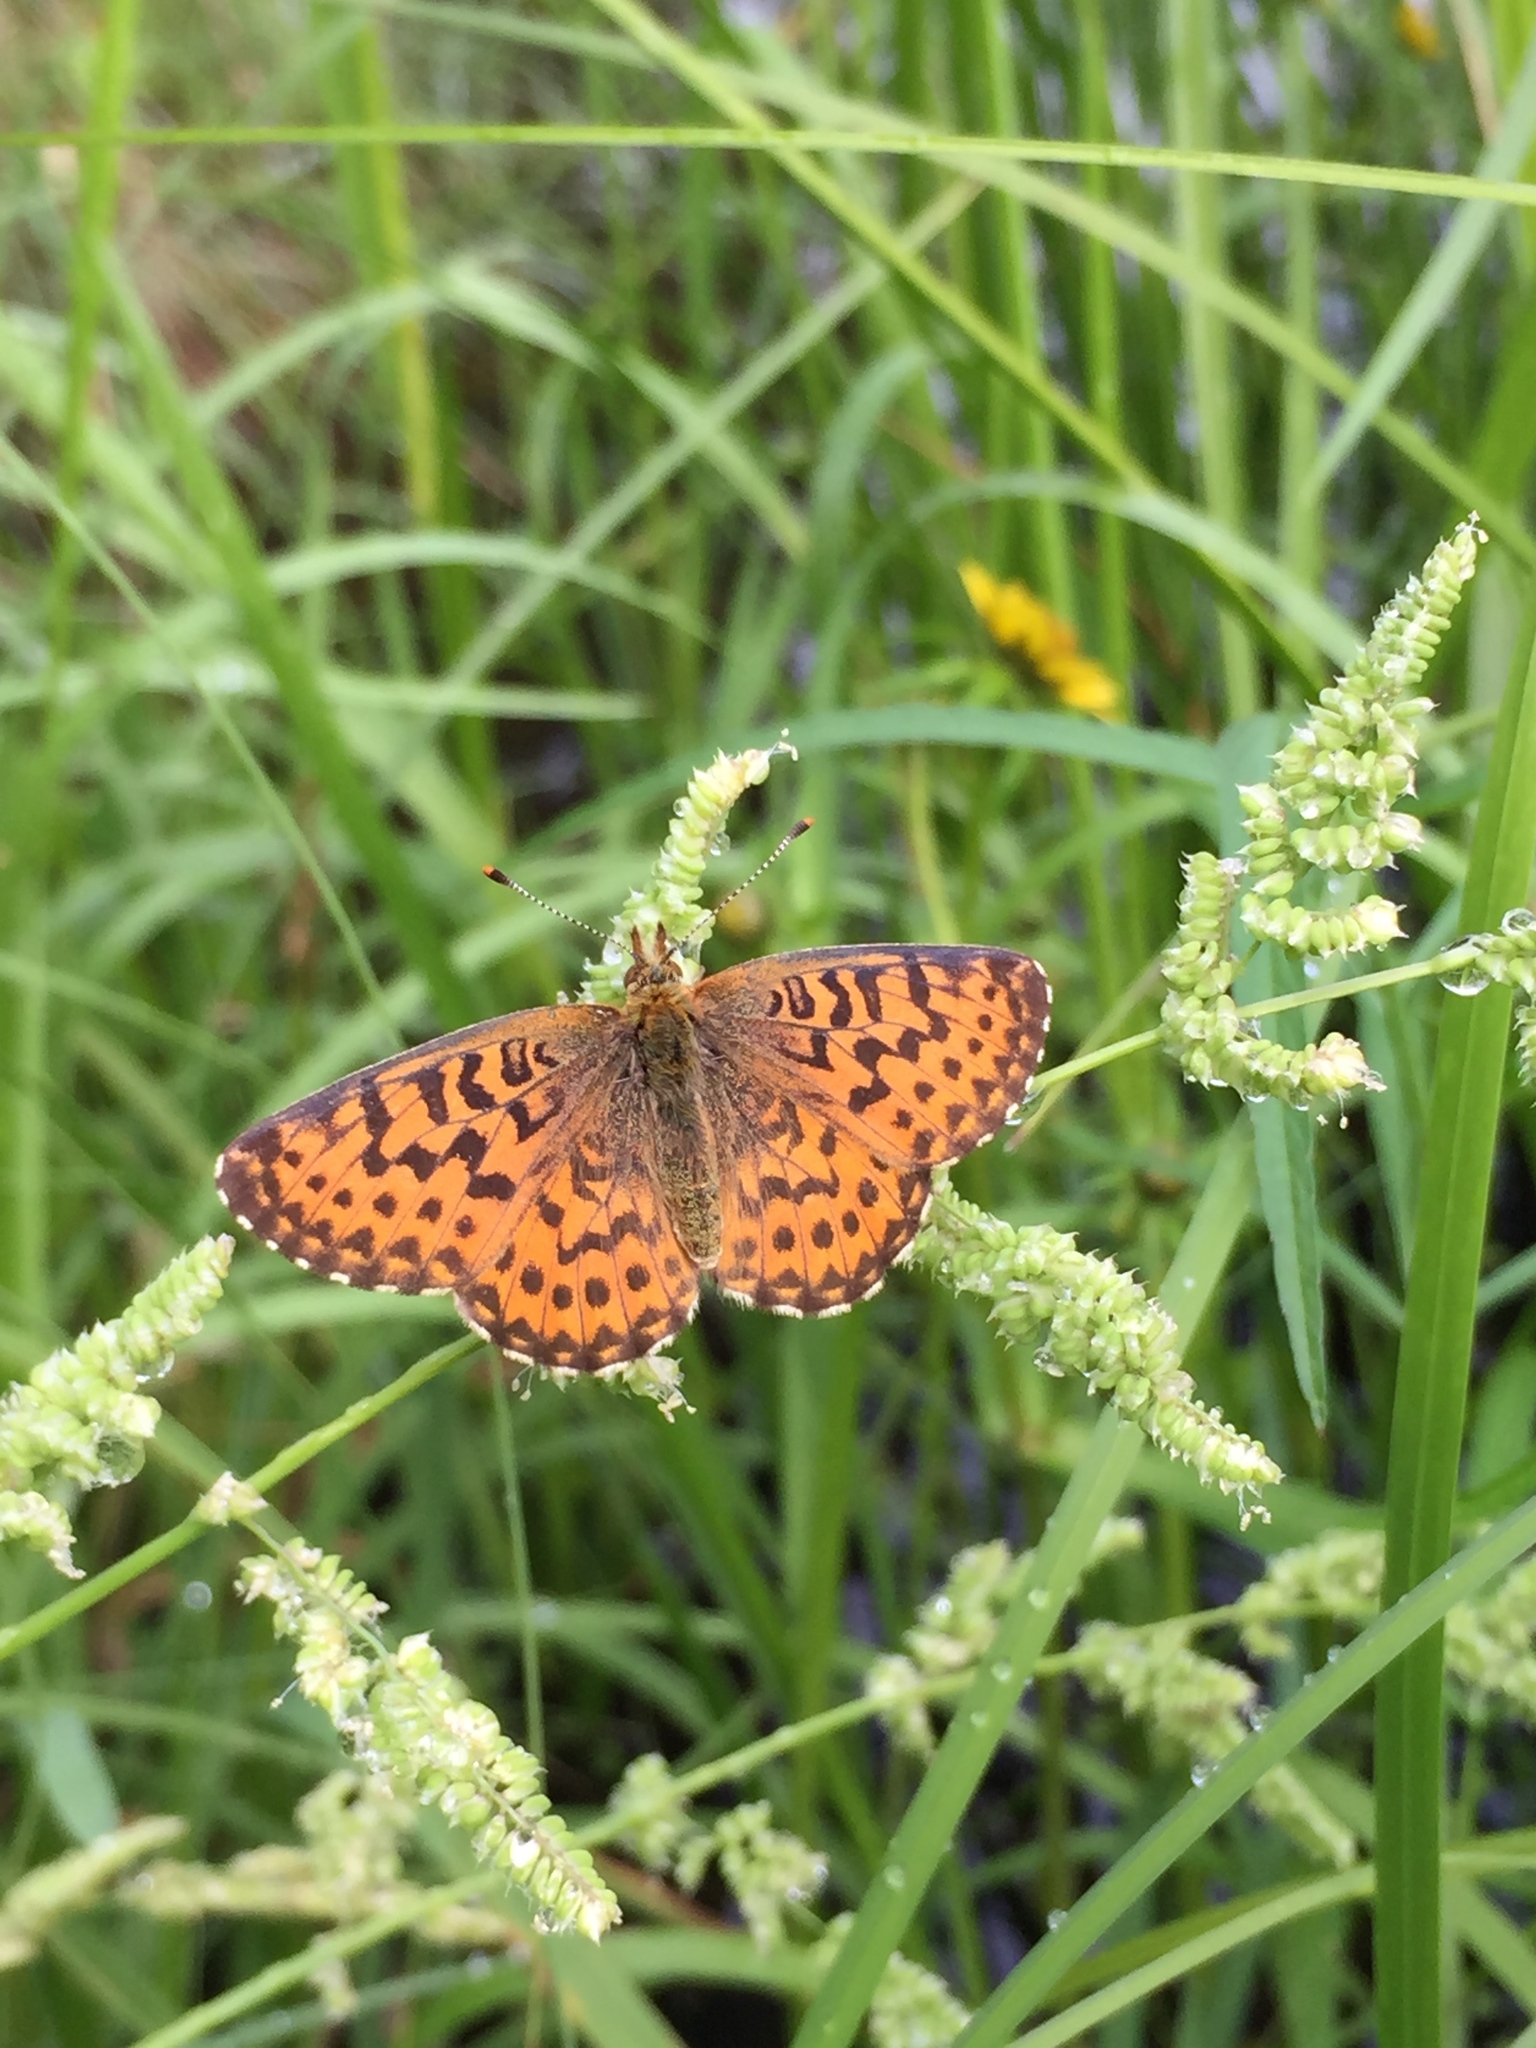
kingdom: Animalia
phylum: Arthropoda
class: Insecta
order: Lepidoptera
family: Nymphalidae
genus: Boloria
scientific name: Boloria chariclea
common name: Arctic fritillary
